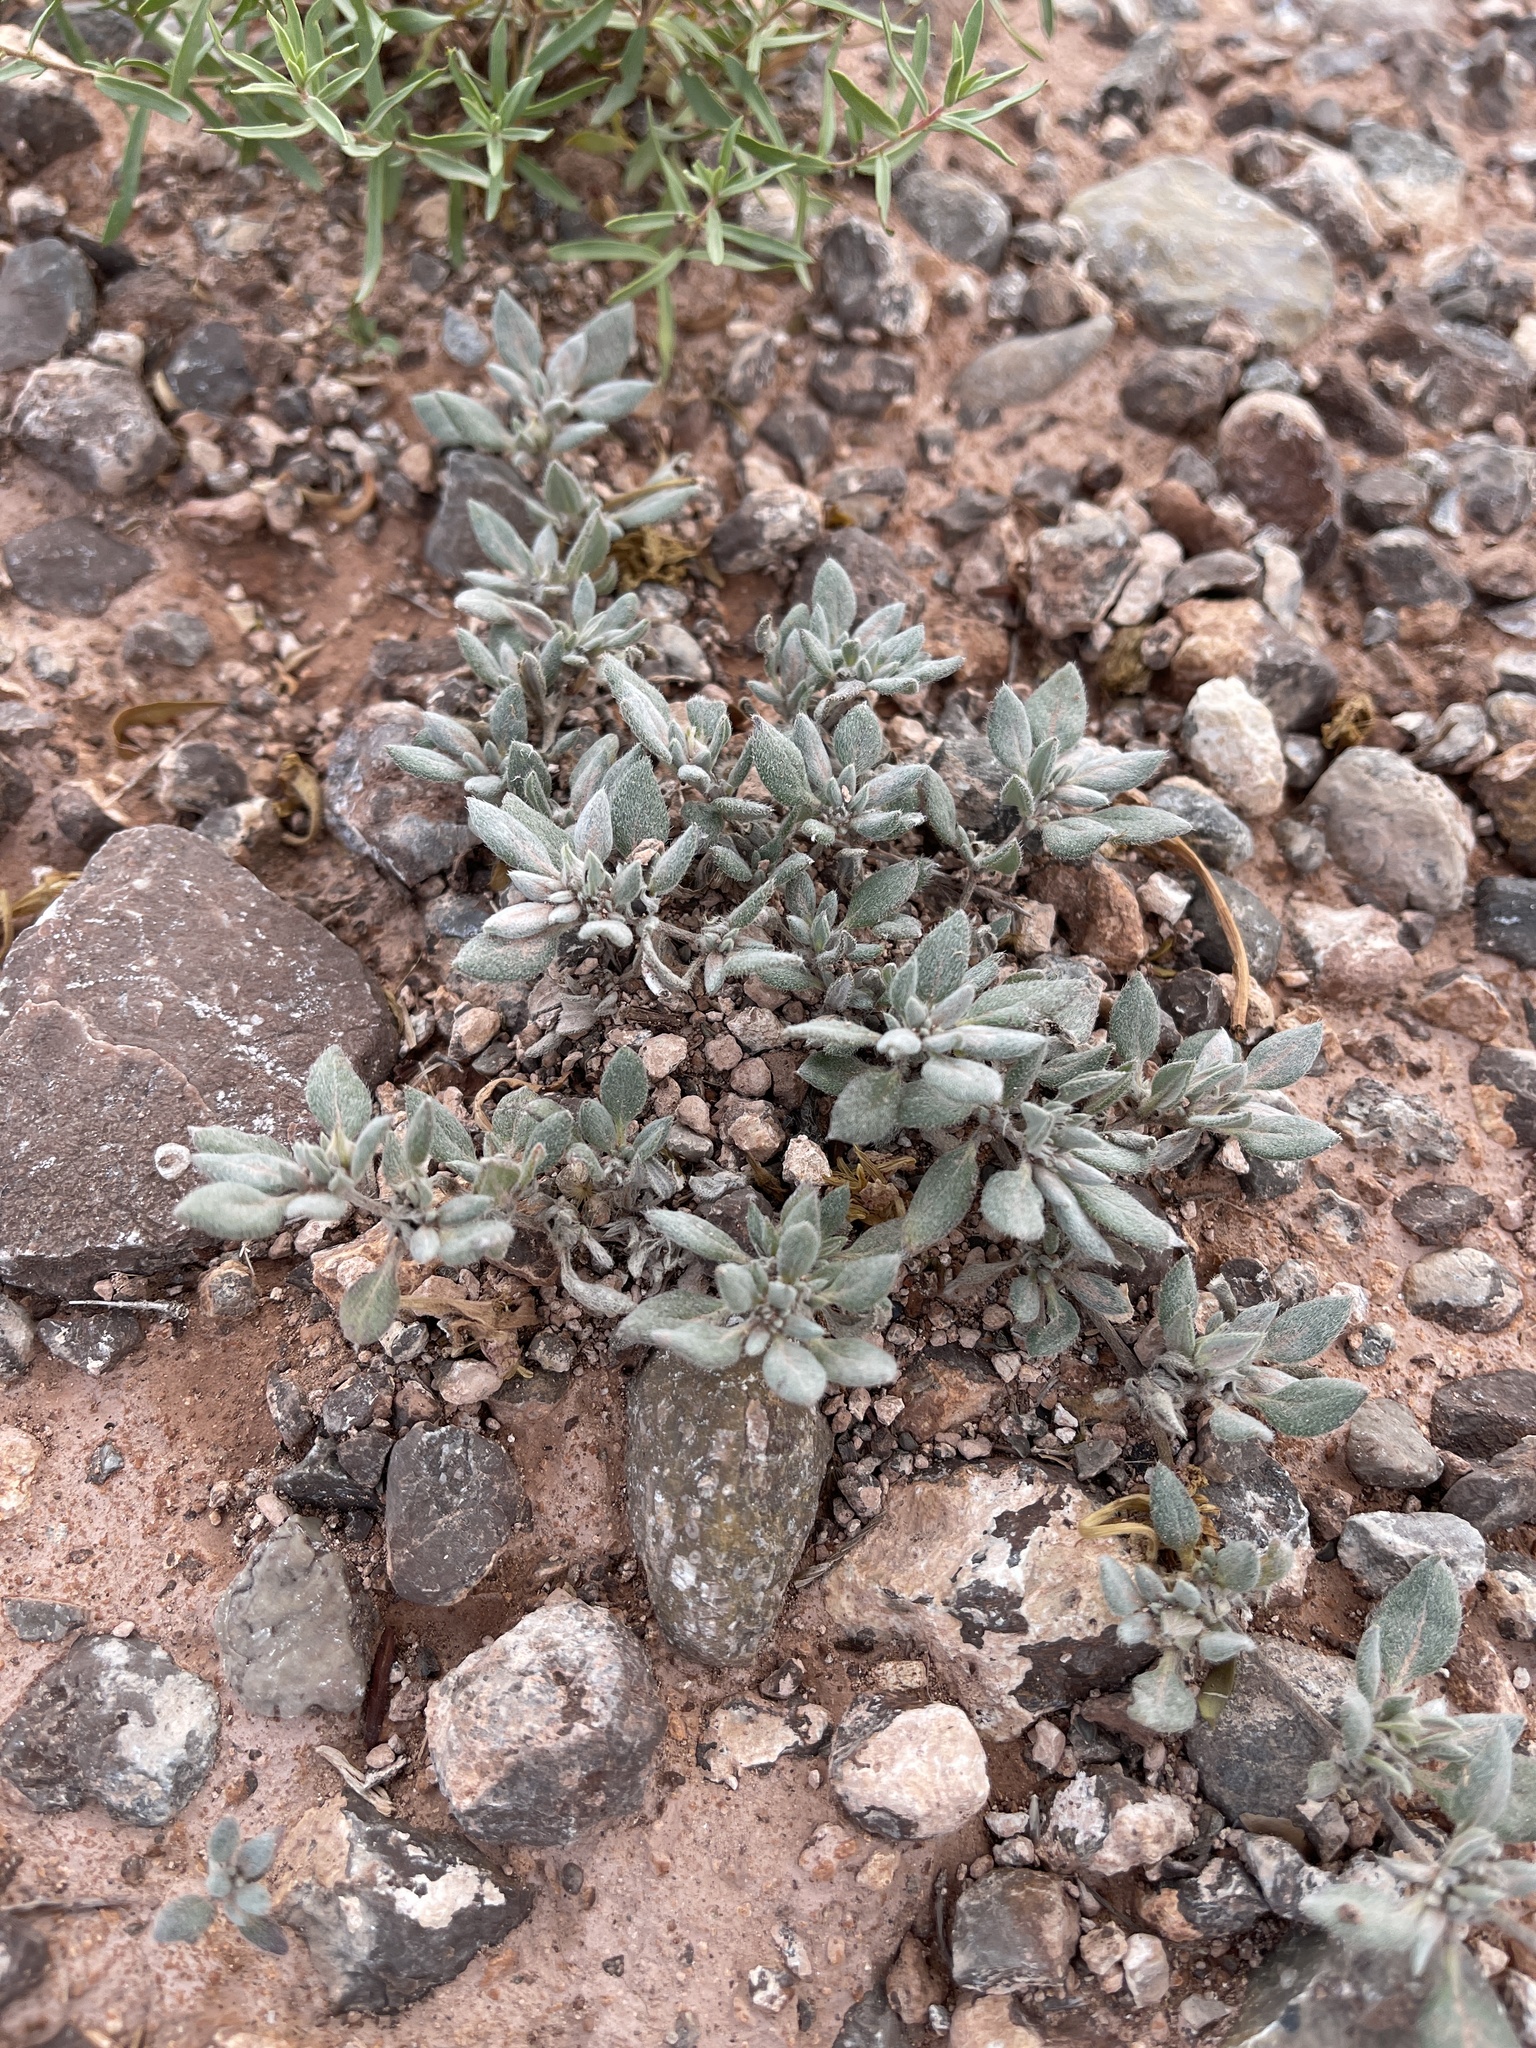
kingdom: Plantae
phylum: Tracheophyta
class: Magnoliopsida
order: Boraginales
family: Ehretiaceae
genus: Tiquilia
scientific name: Tiquilia canescens
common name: Hairy tiquilia
